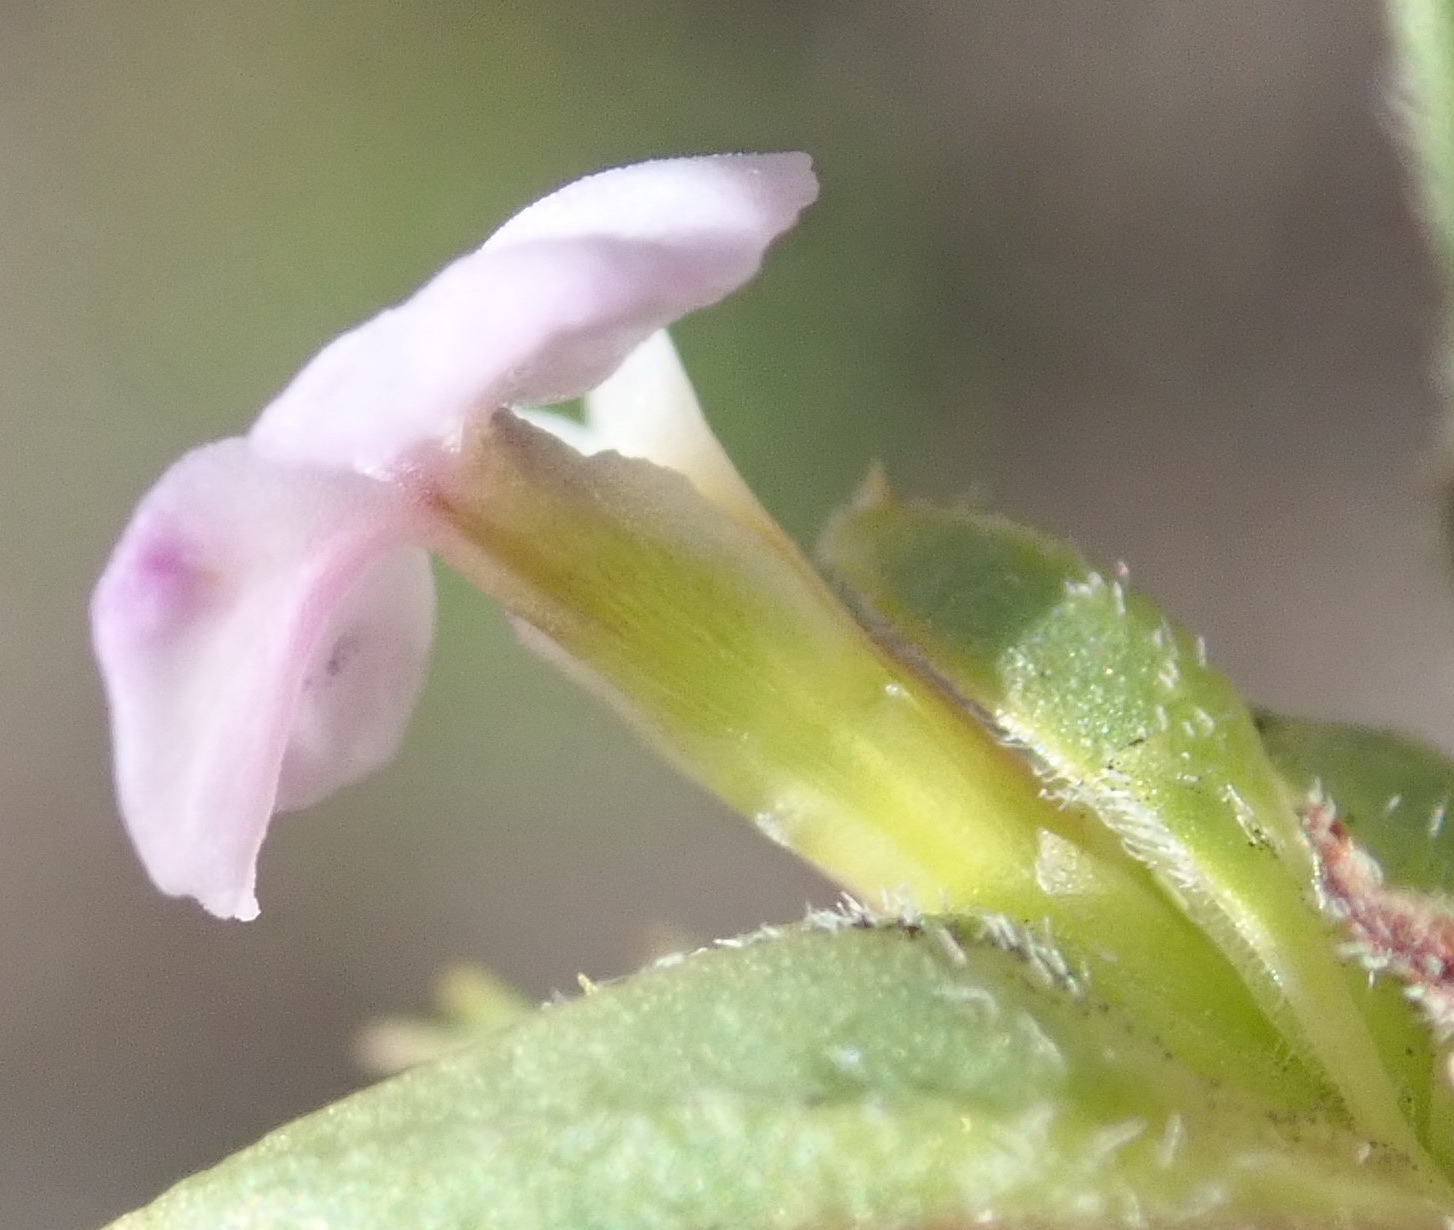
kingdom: Plantae
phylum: Tracheophyta
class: Magnoliopsida
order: Fabales
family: Polygalaceae
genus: Muraltia
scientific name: Muraltia alopecuroides
